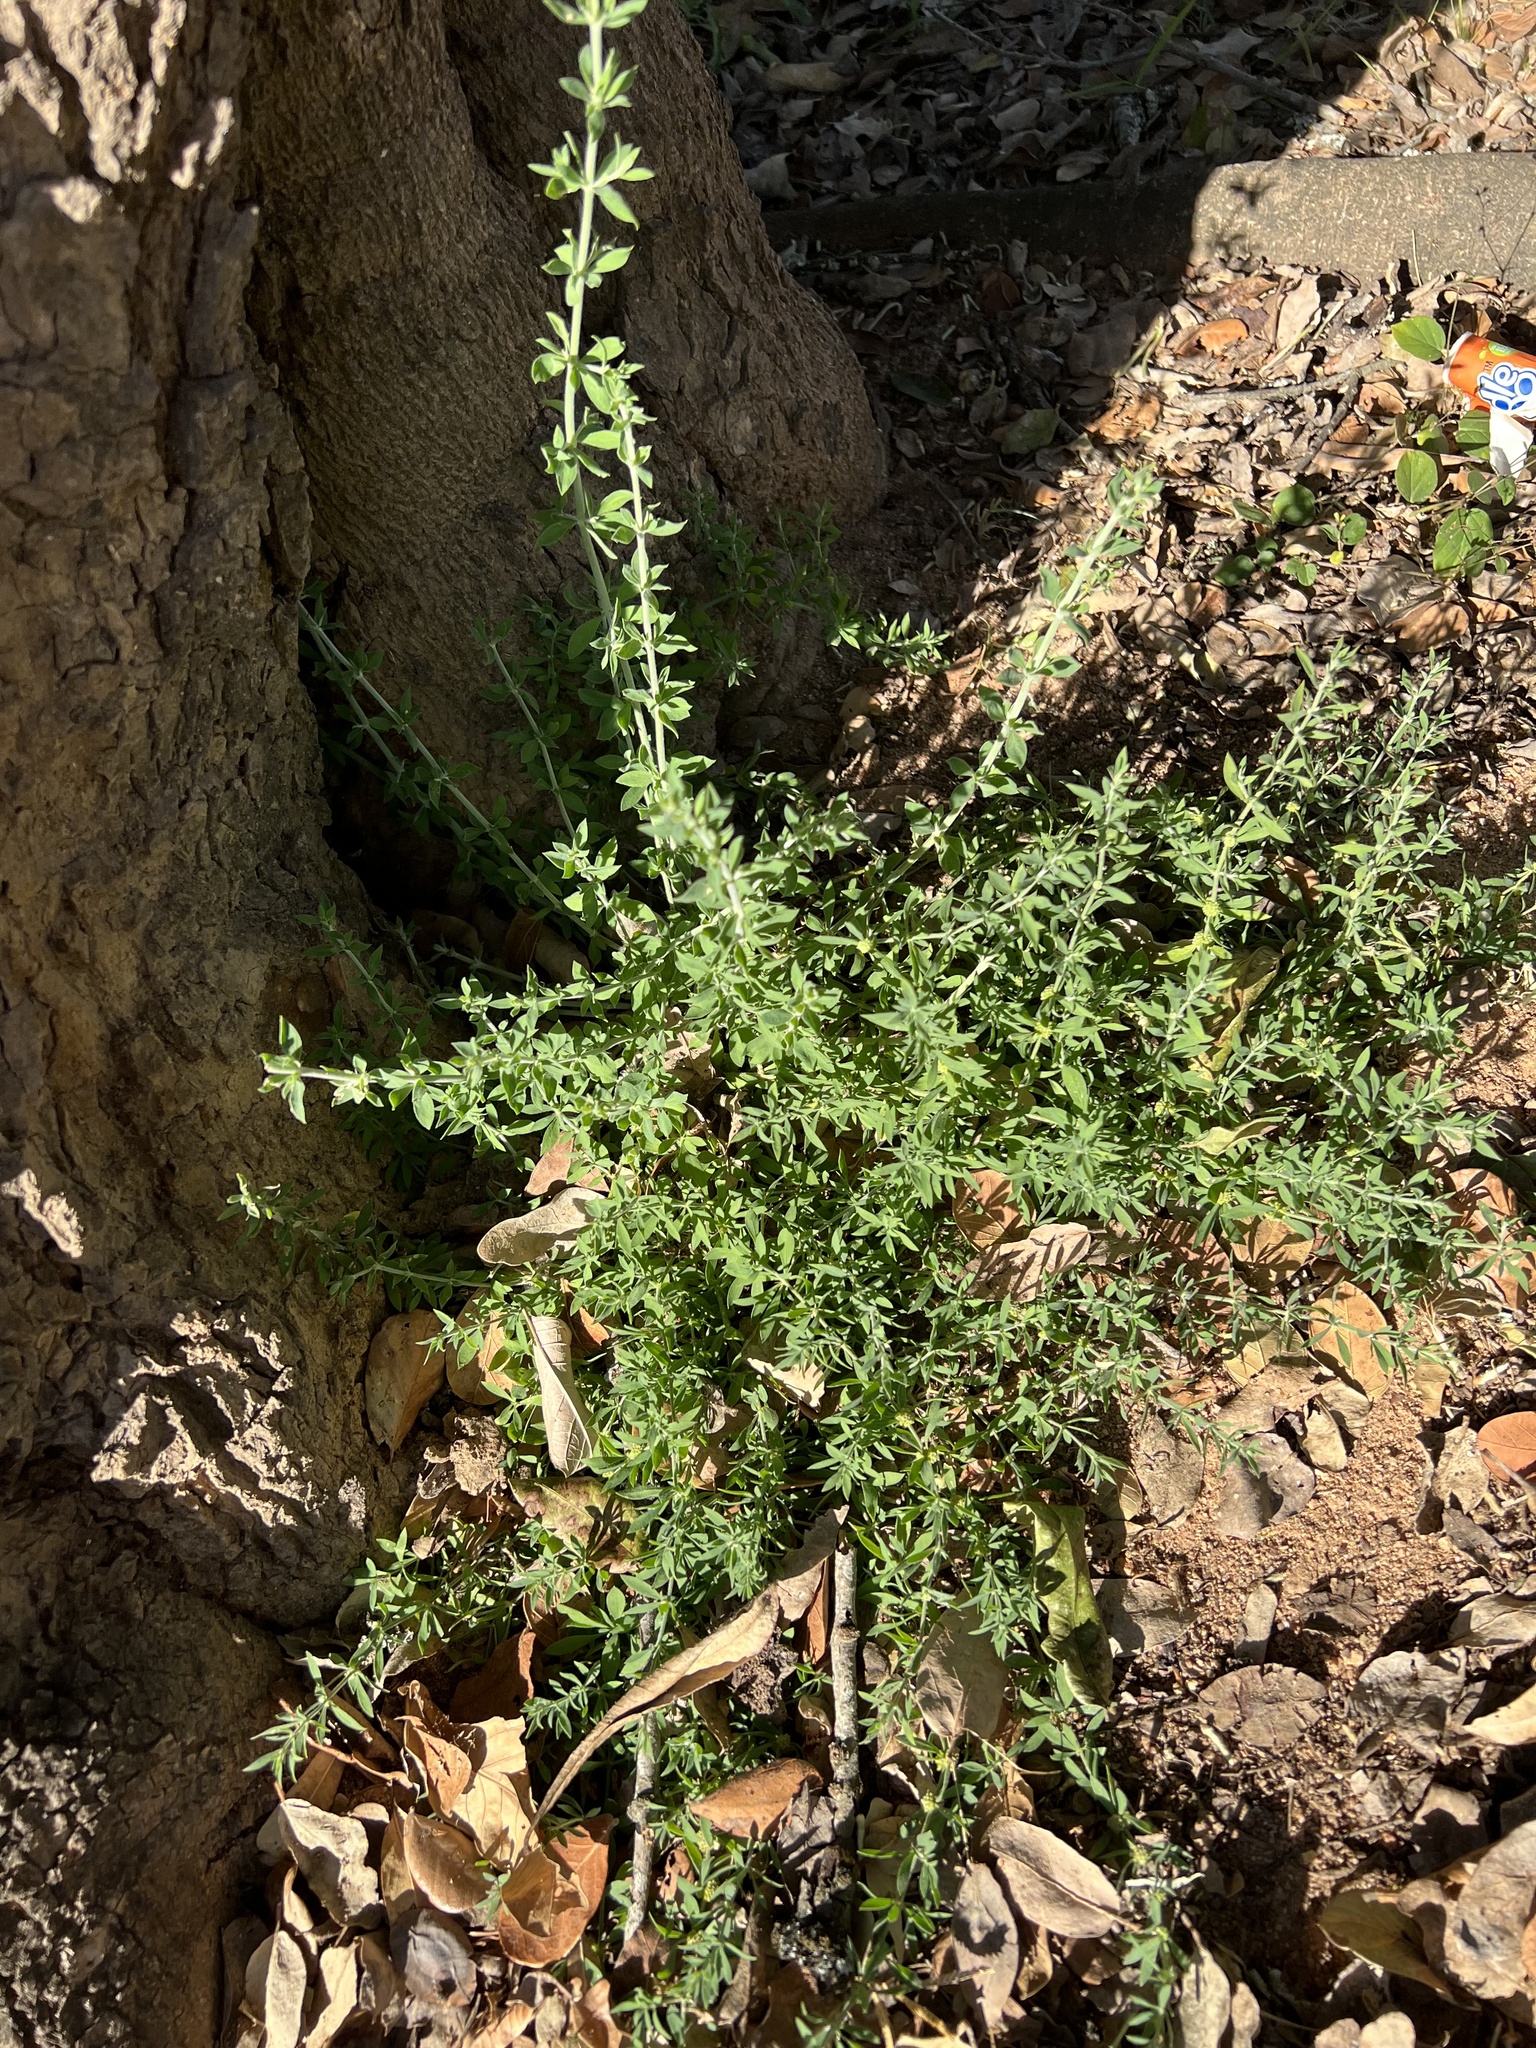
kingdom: Plantae
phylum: Tracheophyta
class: Magnoliopsida
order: Caryophyllales
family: Caryophyllaceae
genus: Pollichia
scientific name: Pollichia campestris
